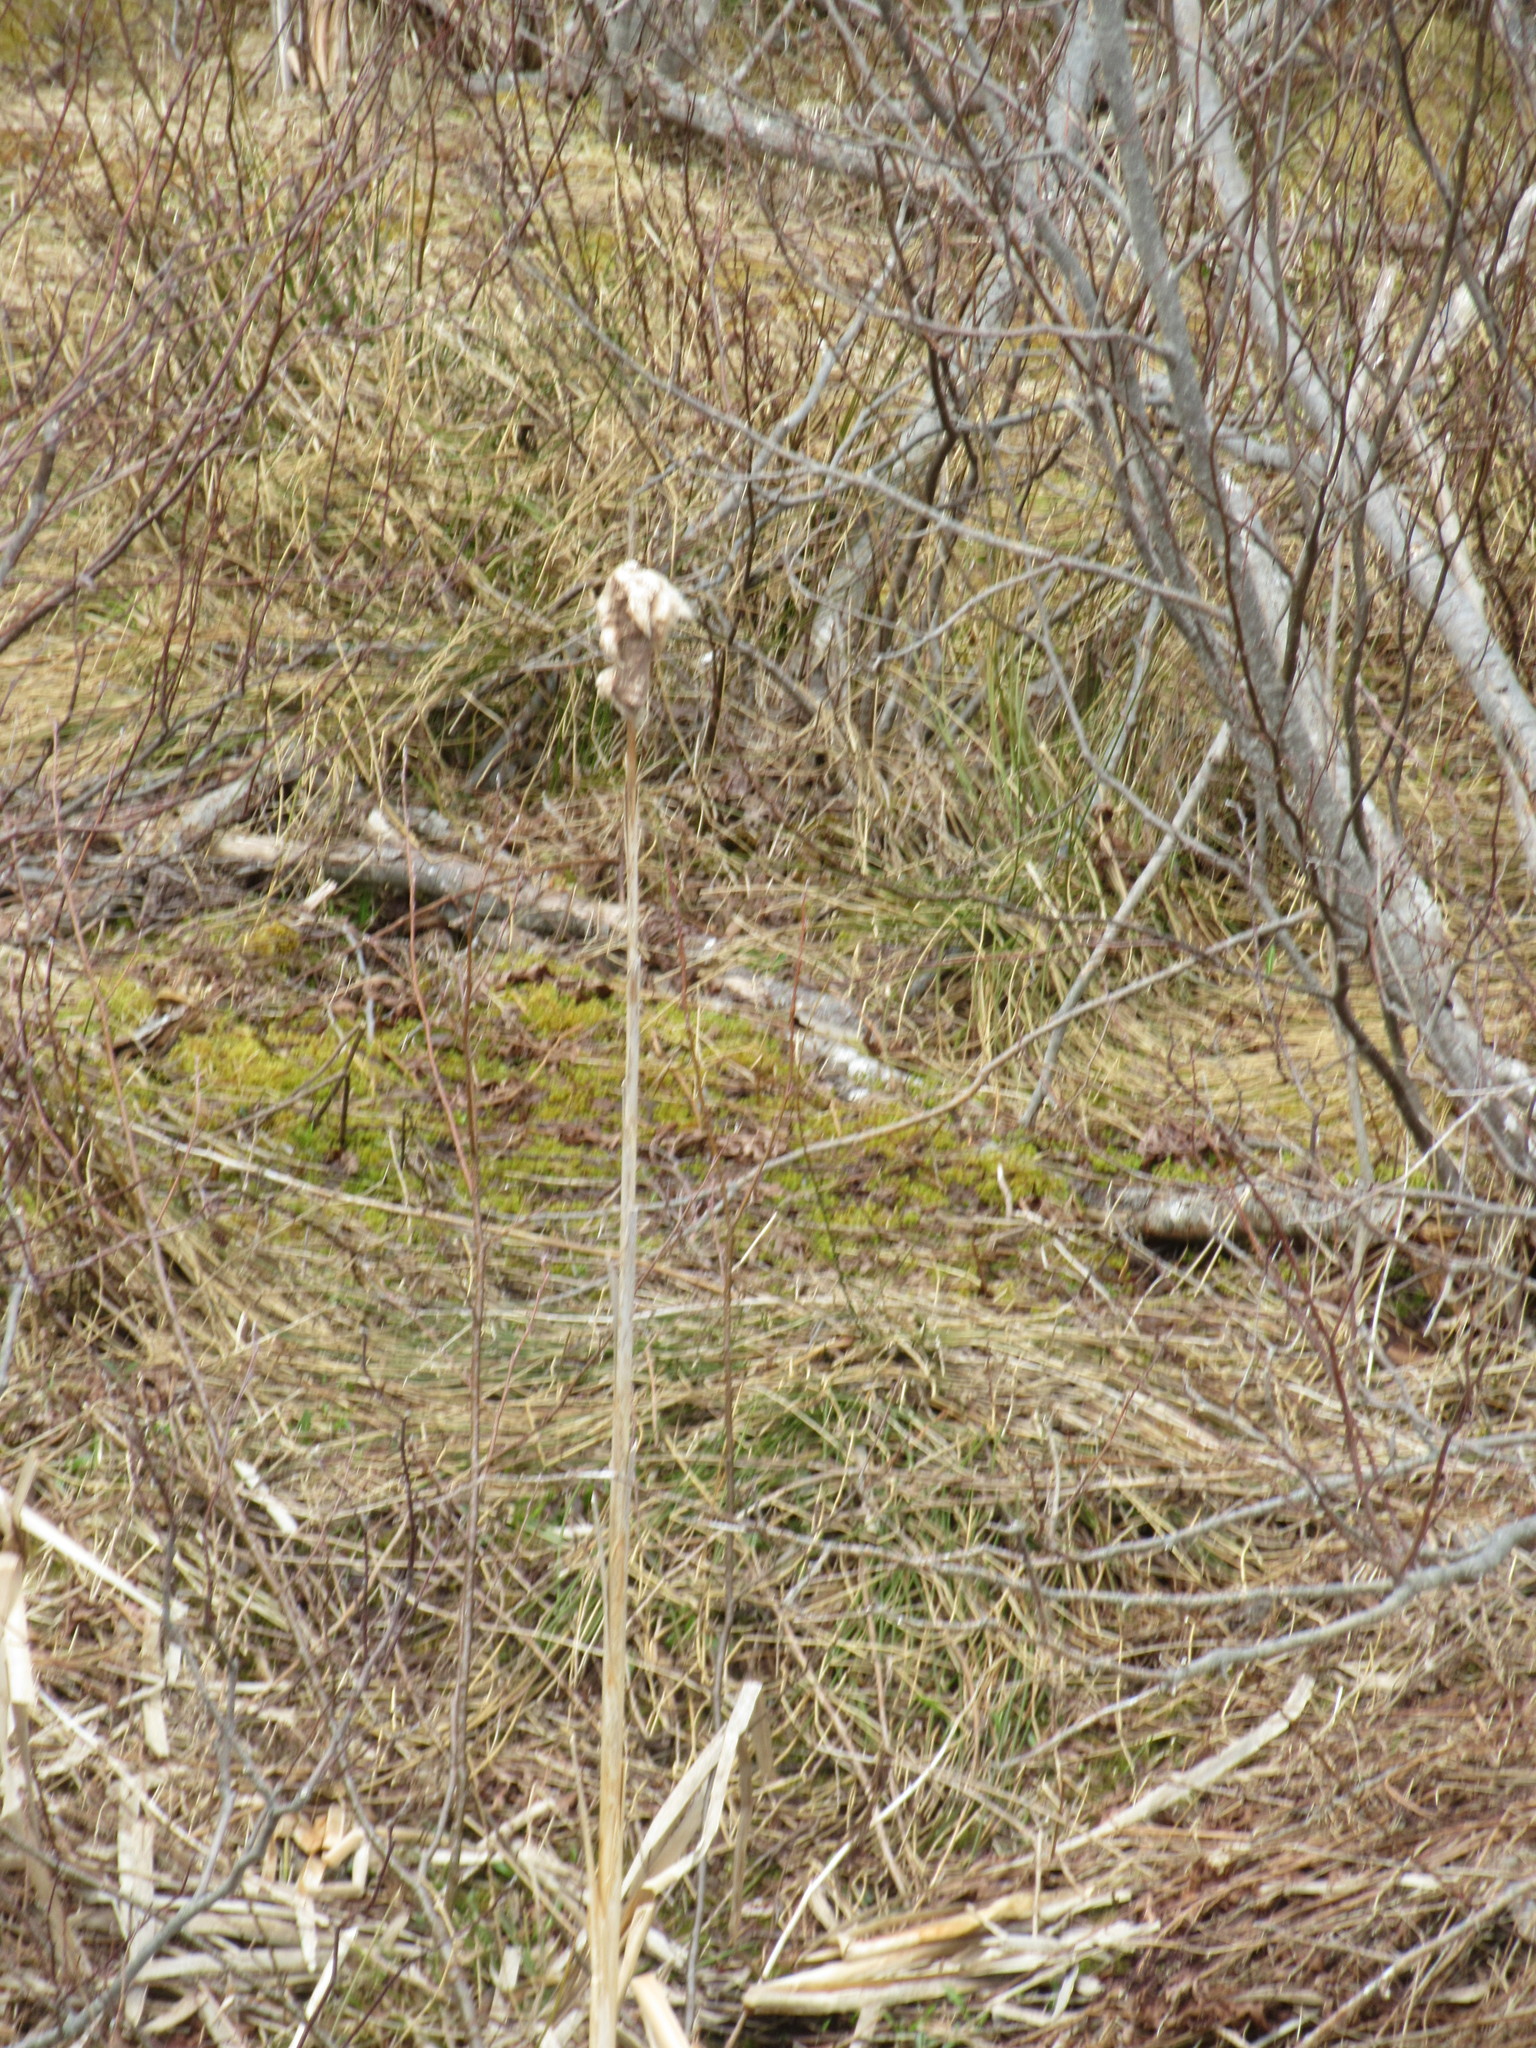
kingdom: Plantae
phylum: Tracheophyta
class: Liliopsida
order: Poales
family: Typhaceae
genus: Typha
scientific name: Typha latifolia
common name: Broadleaf cattail
